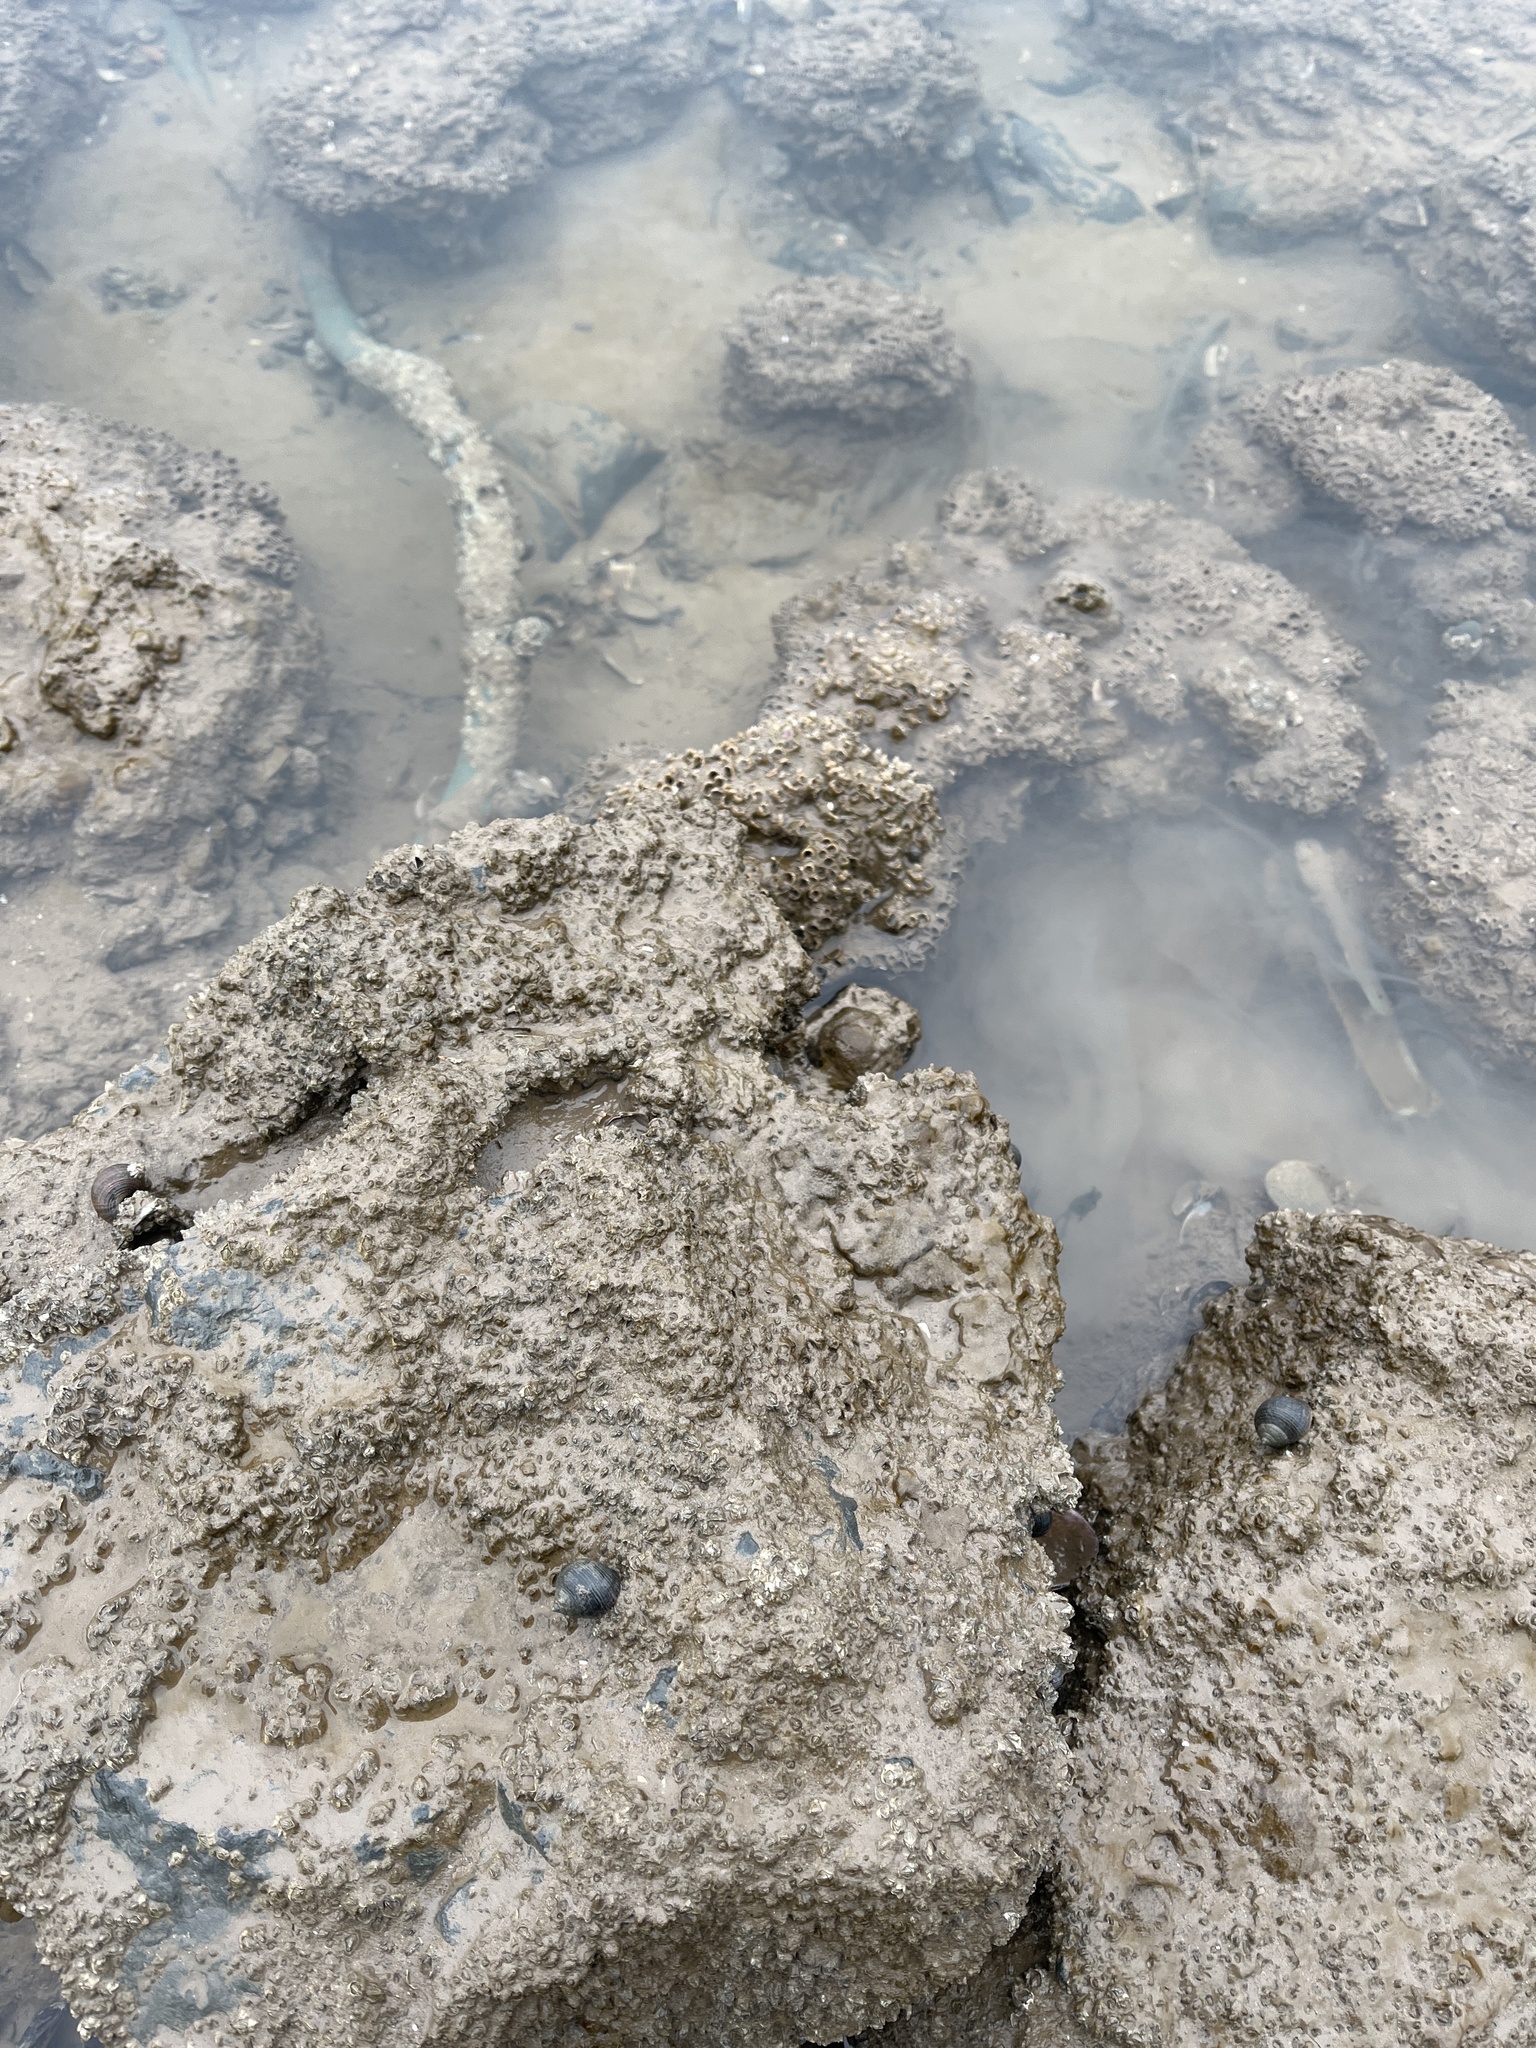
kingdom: Animalia
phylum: Annelida
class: Polychaeta
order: Sabellida
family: Sabellariidae
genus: Sabellaria
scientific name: Sabellaria alveolata
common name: Honeycomb worm
